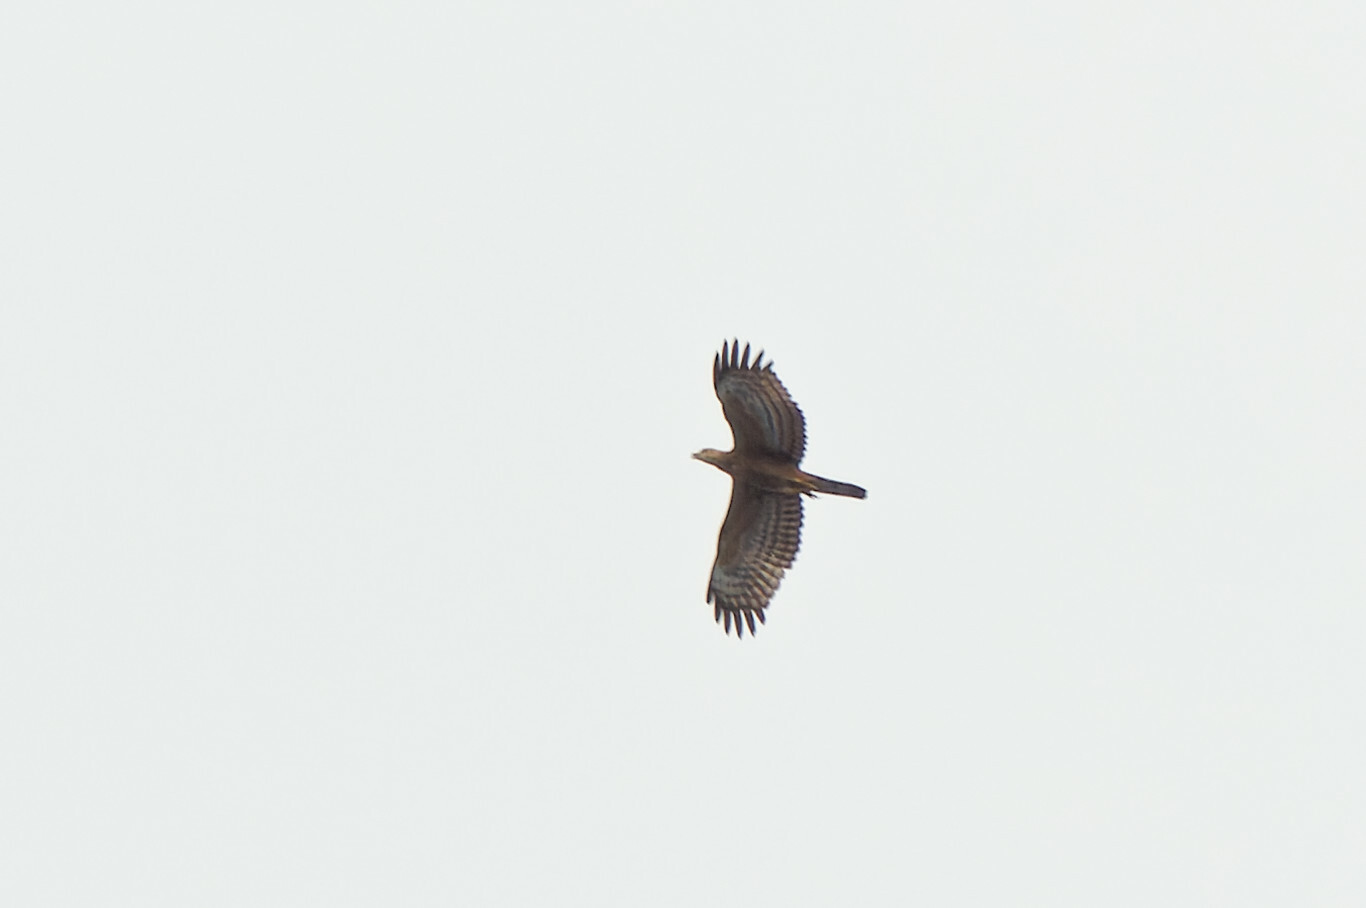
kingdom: Animalia
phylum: Chordata
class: Aves
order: Accipitriformes
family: Accipitridae
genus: Pernis
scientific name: Pernis ptilorhynchus
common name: Crested honey buzzard
